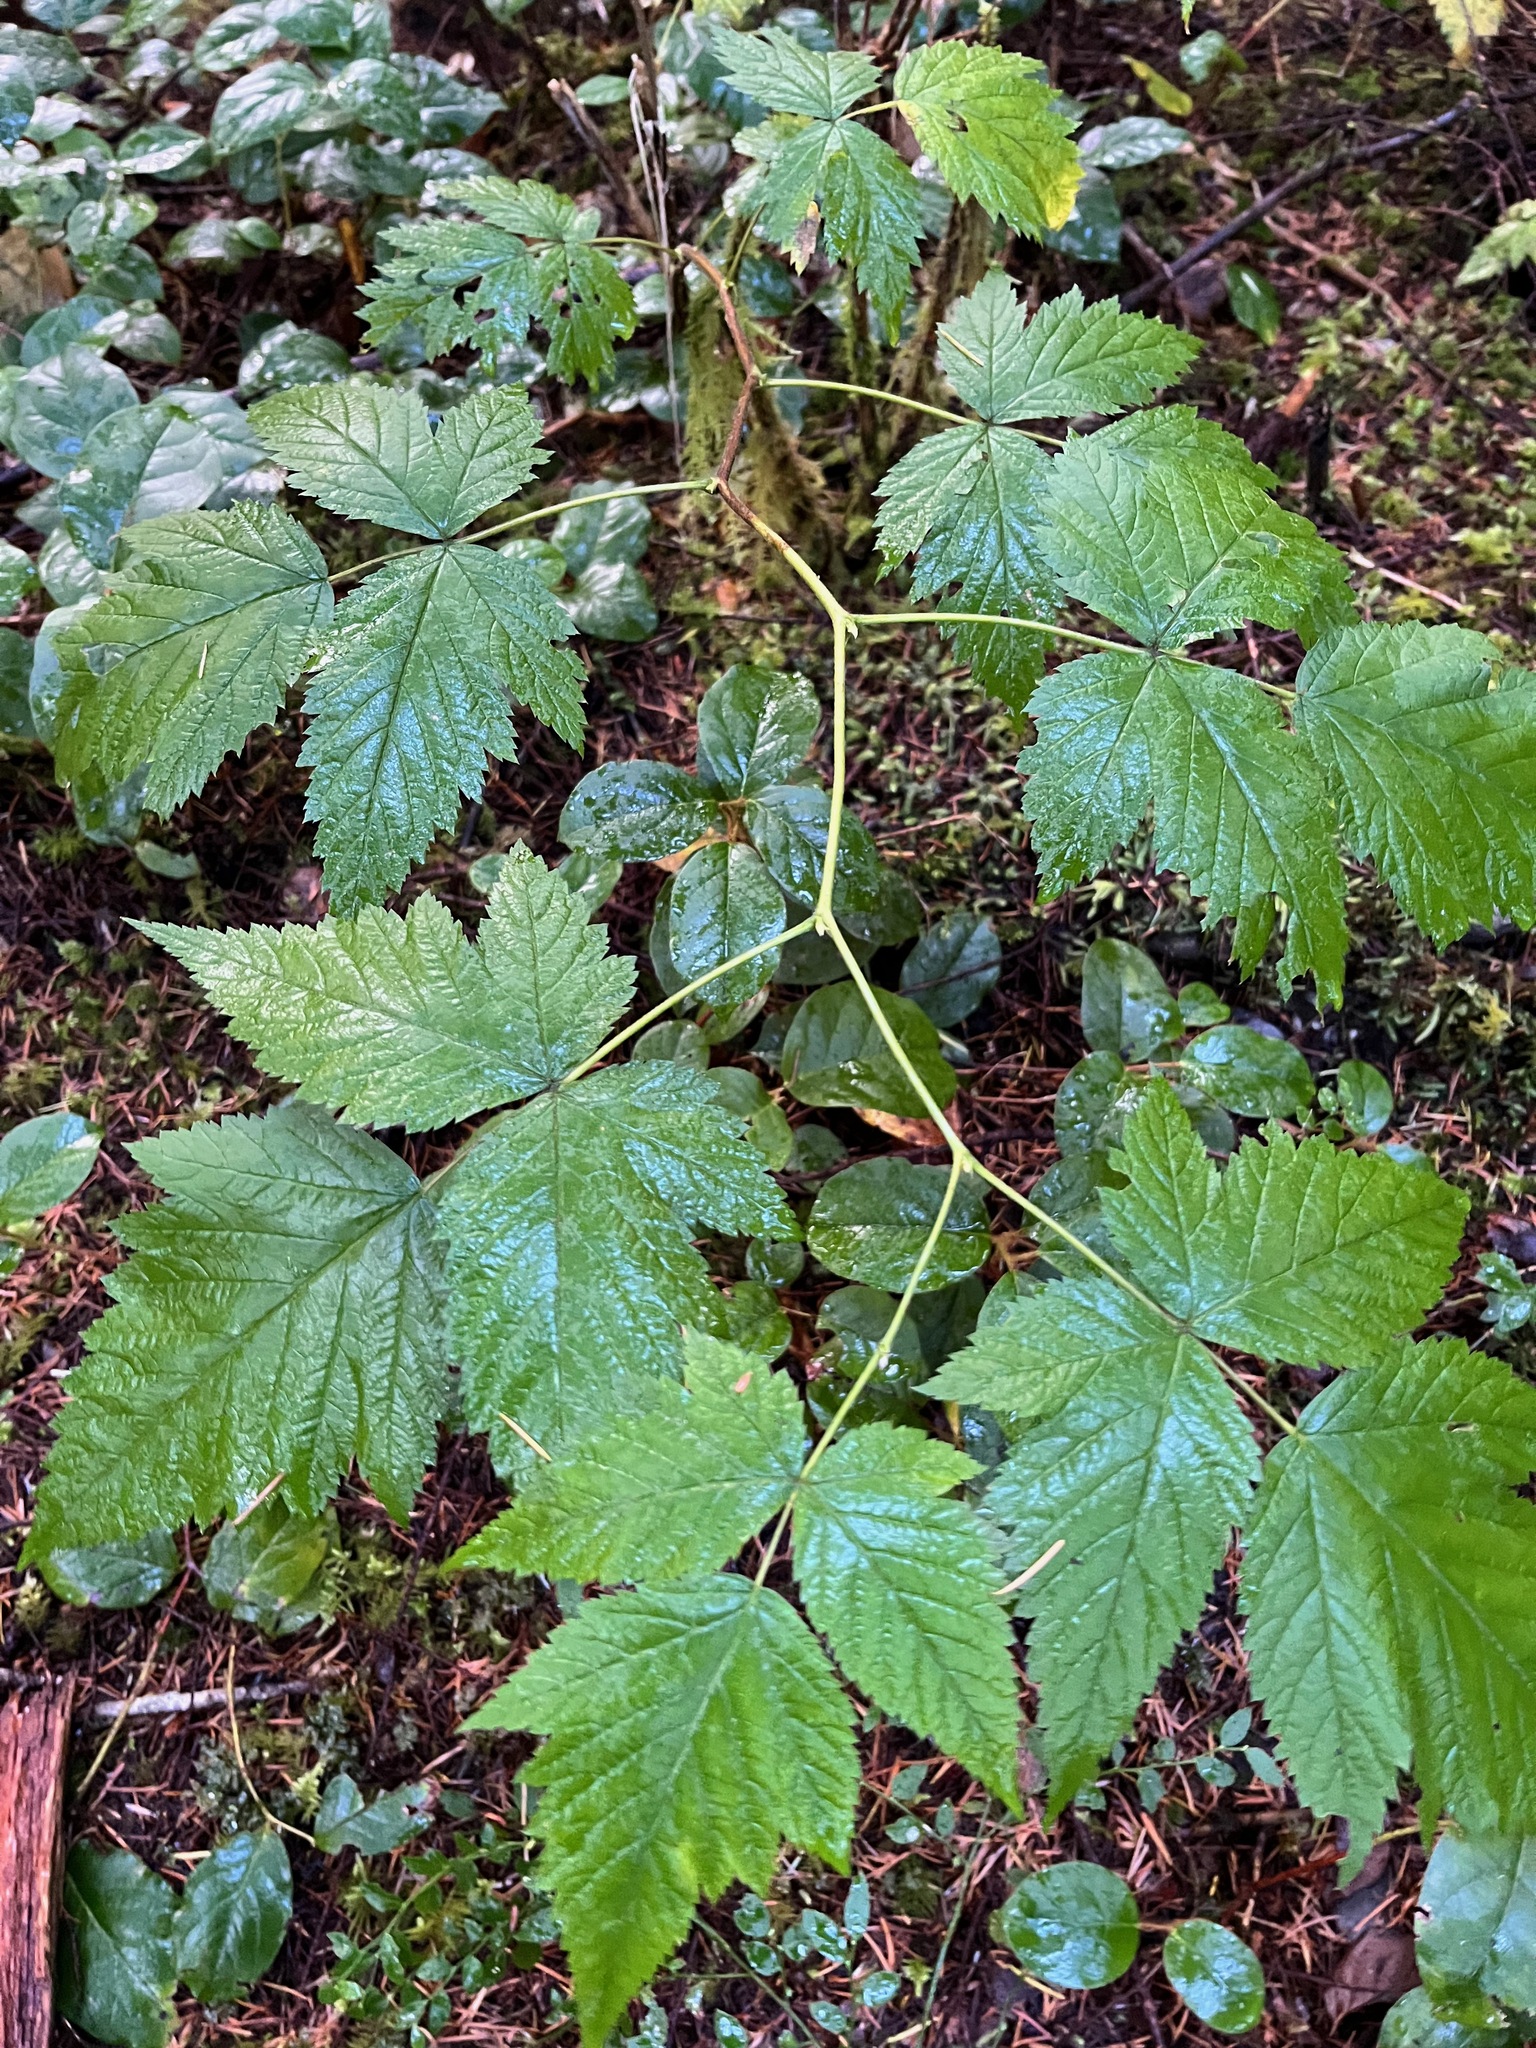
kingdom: Plantae
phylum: Tracheophyta
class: Magnoliopsida
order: Rosales
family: Rosaceae
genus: Rubus
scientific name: Rubus spectabilis
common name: Salmonberry
